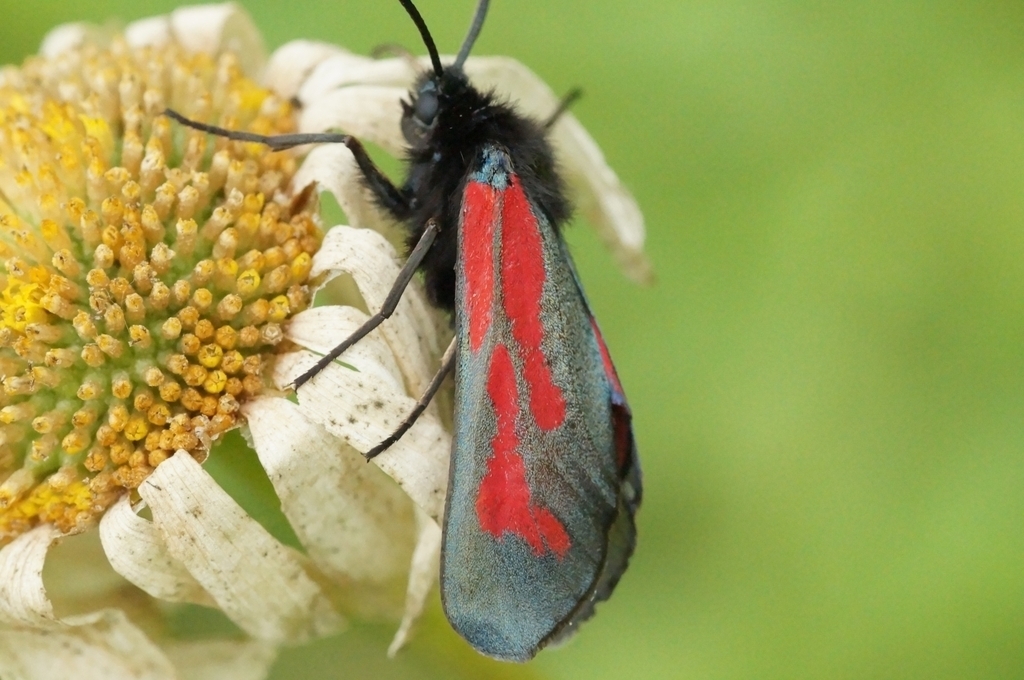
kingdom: Animalia
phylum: Arthropoda
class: Insecta
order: Lepidoptera
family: Zygaenidae
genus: Zygaena
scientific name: Zygaena minos
